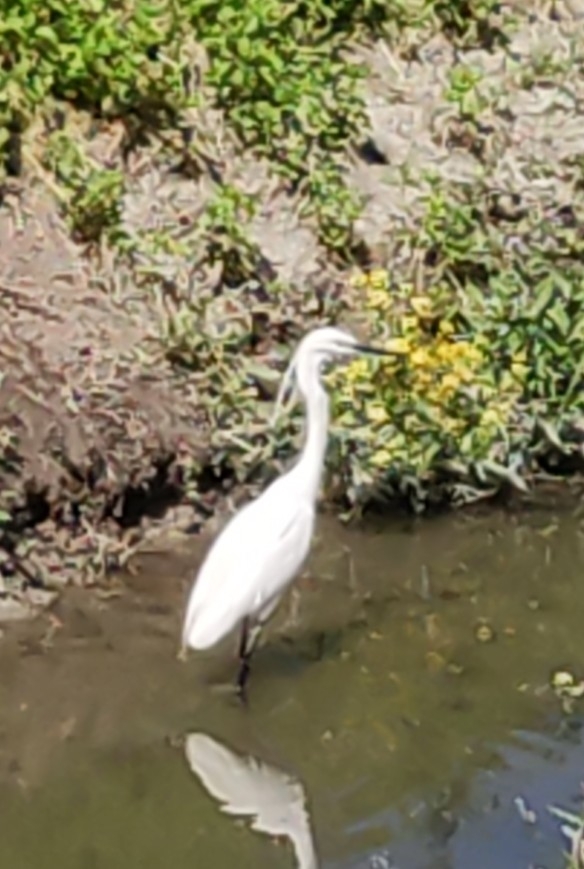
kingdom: Animalia
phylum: Chordata
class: Aves
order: Pelecaniformes
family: Ardeidae
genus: Egretta
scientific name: Egretta garzetta
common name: Little egret
